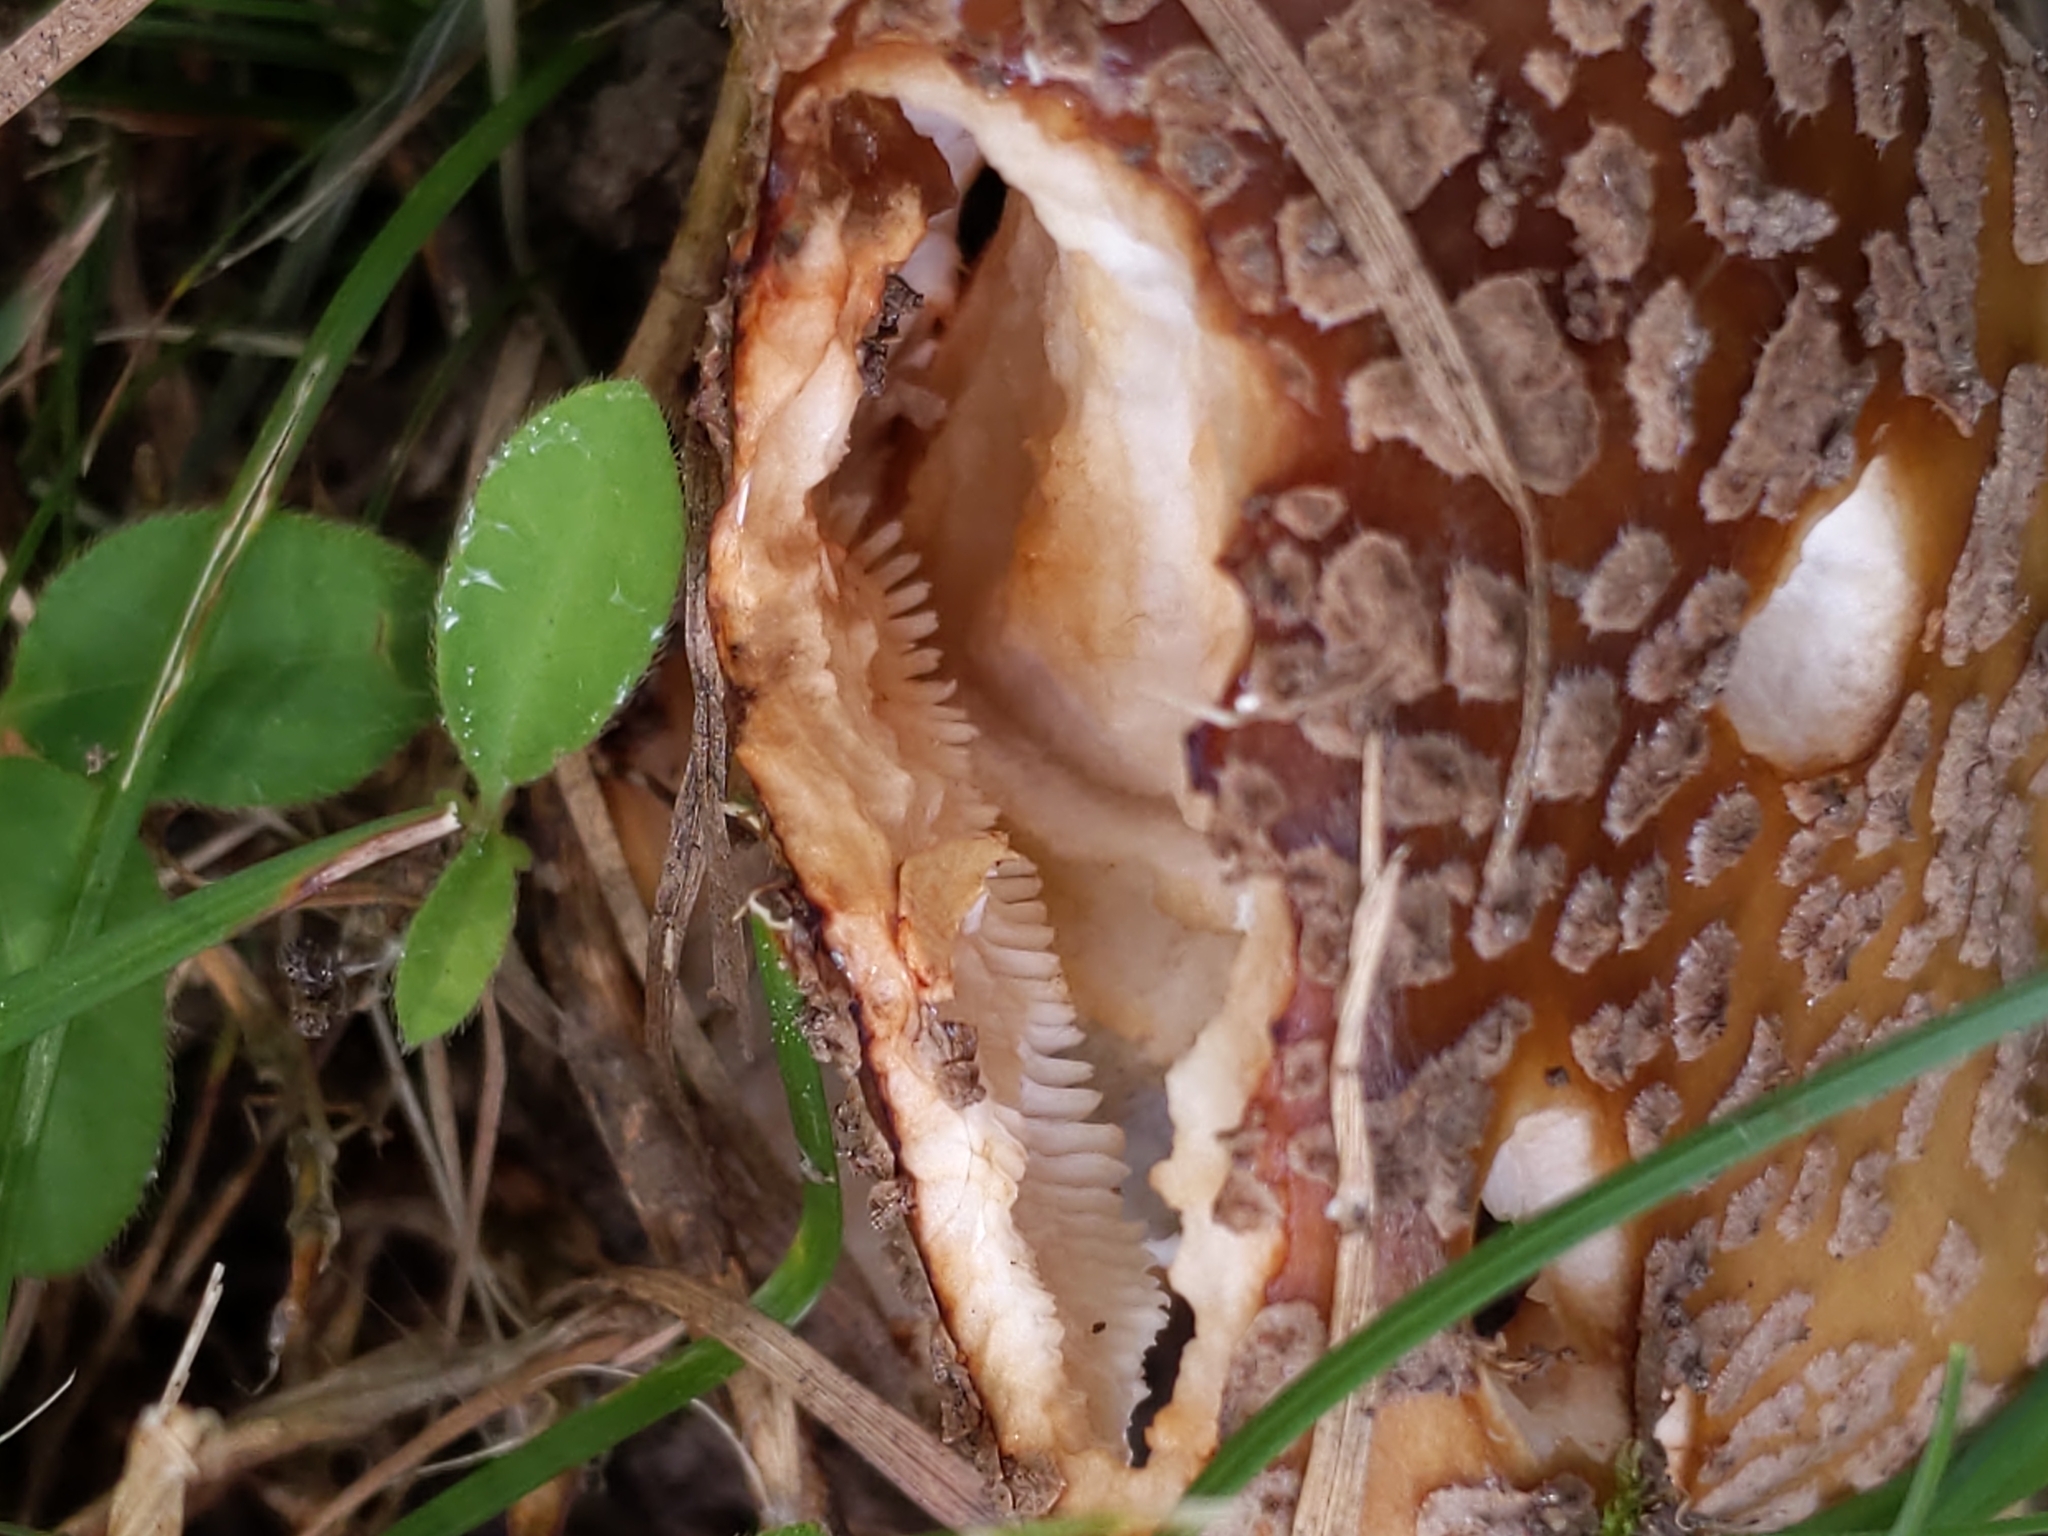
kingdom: Fungi
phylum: Basidiomycota
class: Agaricomycetes
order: Agaricales
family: Amanitaceae
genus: Amanita
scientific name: Amanita
